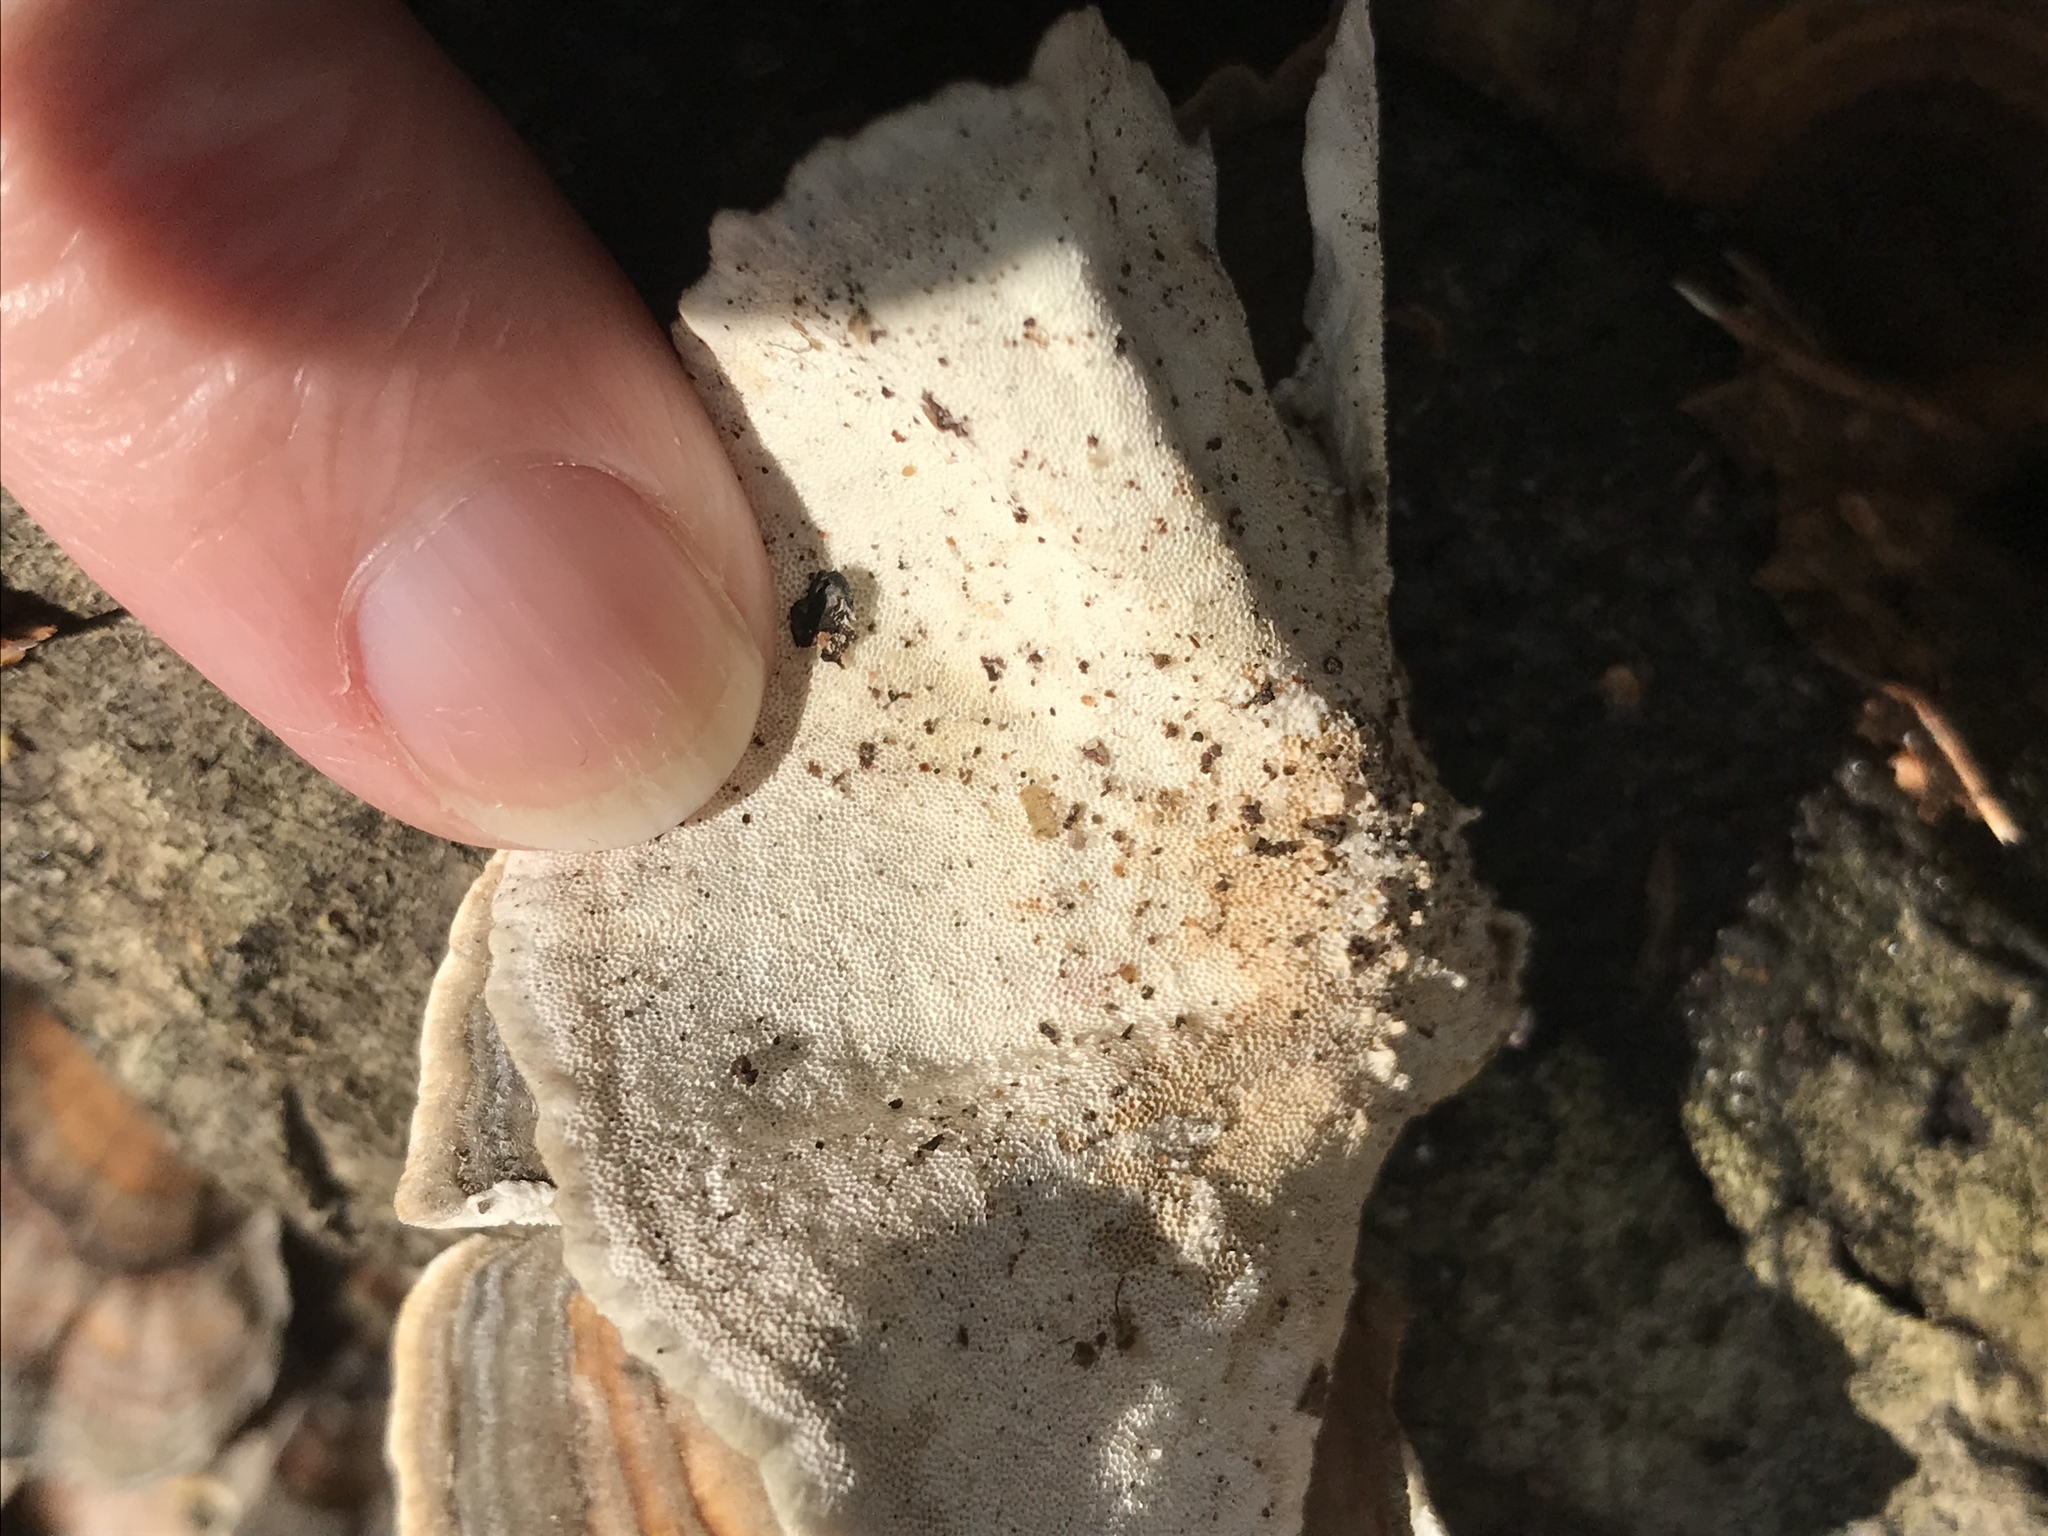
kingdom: Fungi
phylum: Basidiomycota
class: Agaricomycetes
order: Polyporales
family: Polyporaceae
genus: Trametes
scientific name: Trametes versicolor
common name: Turkeytail
